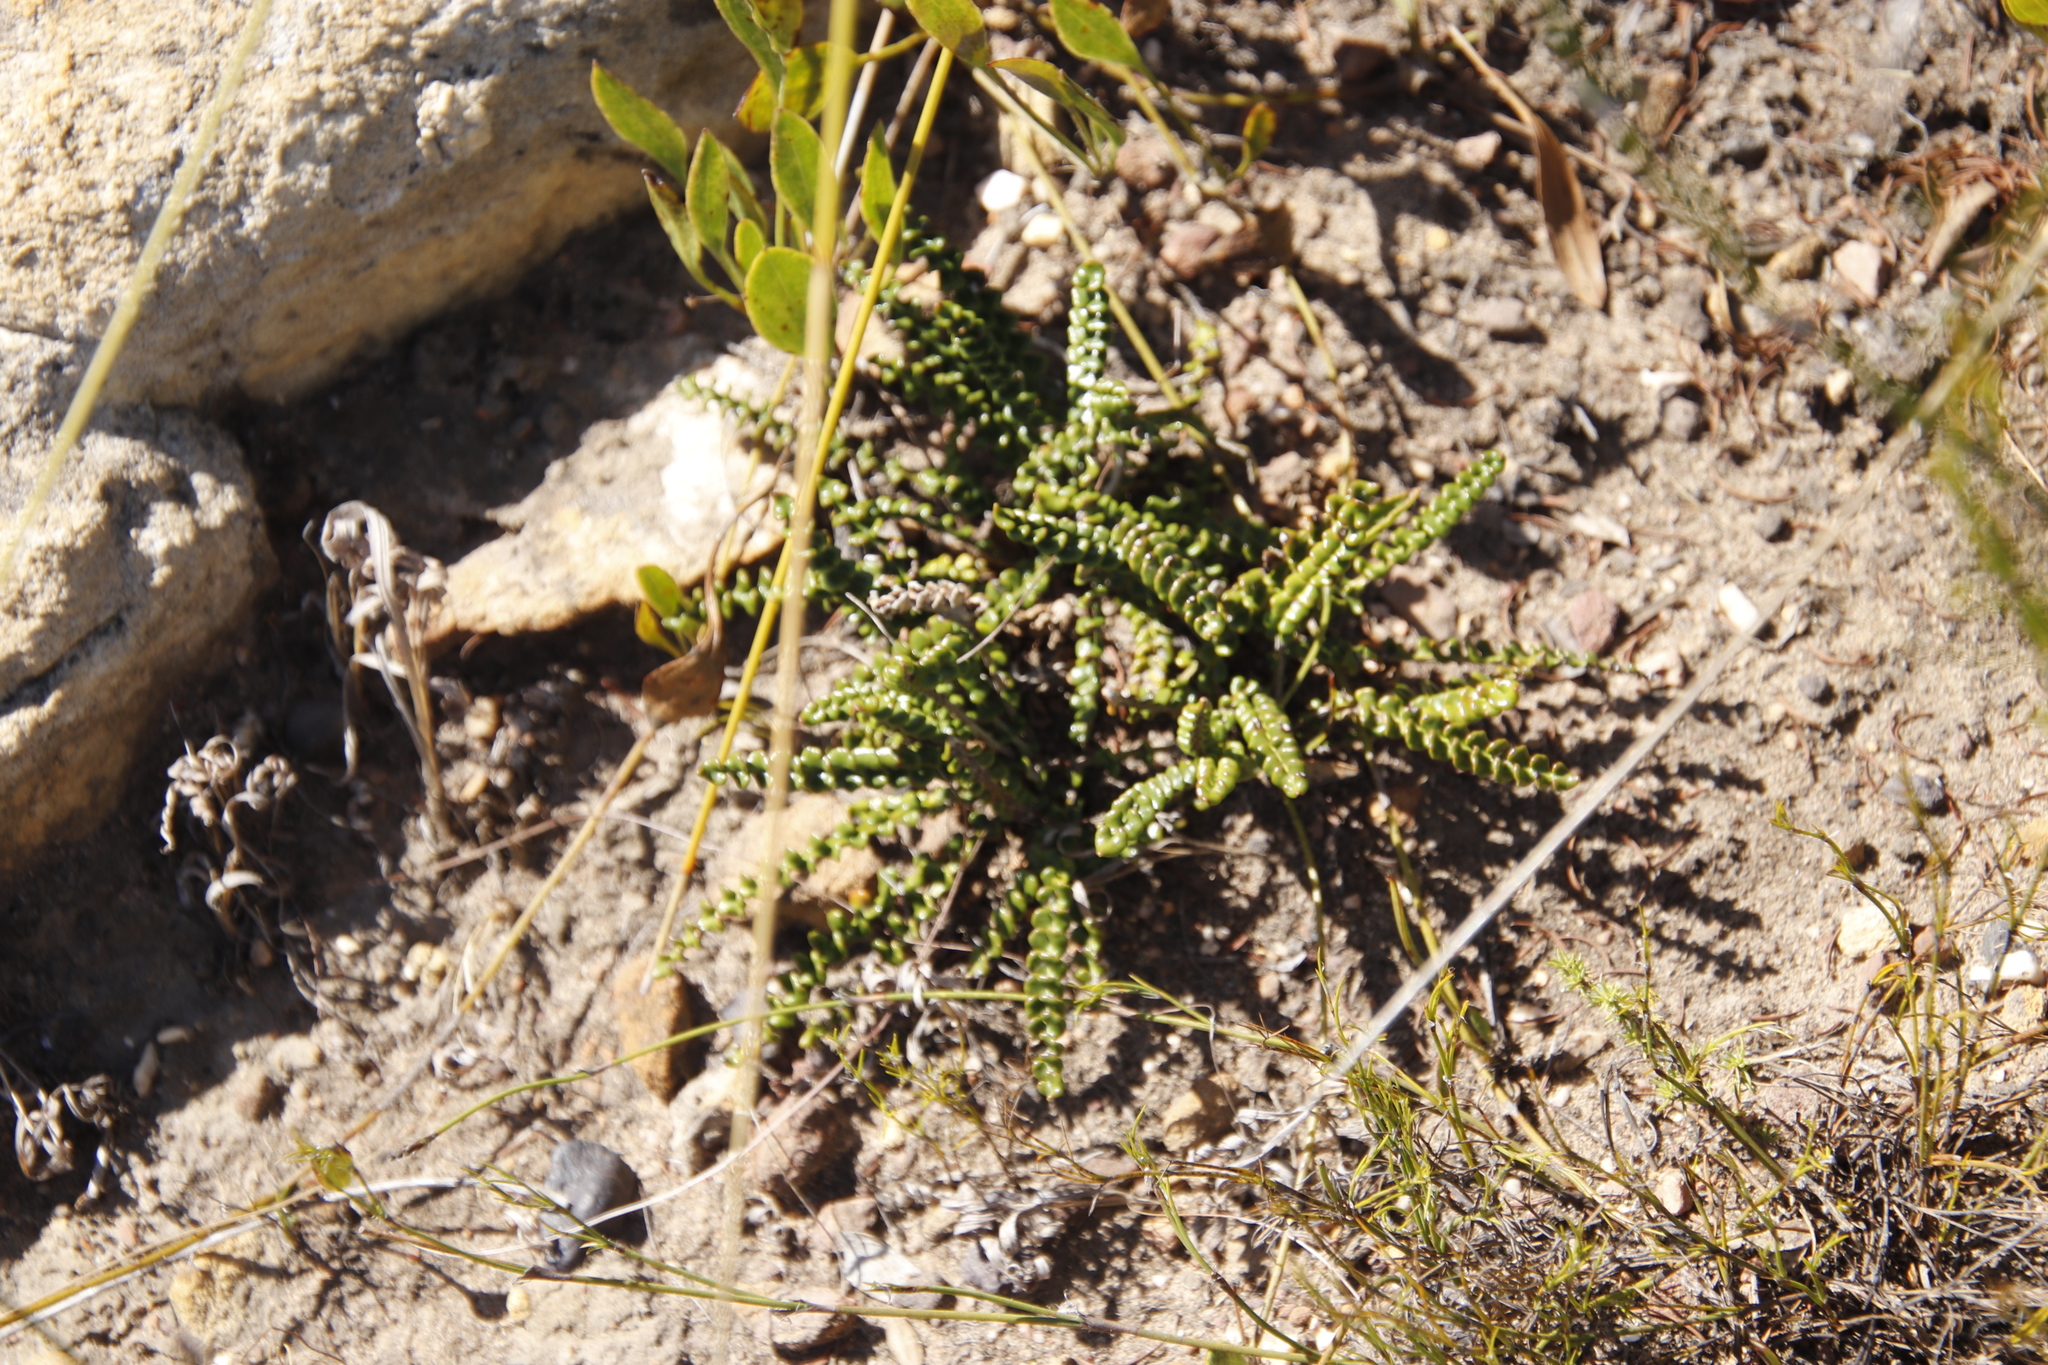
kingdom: Plantae
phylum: Tracheophyta
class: Magnoliopsida
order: Asterales
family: Asteraceae
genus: Gerbera
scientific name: Gerbera linnaei
